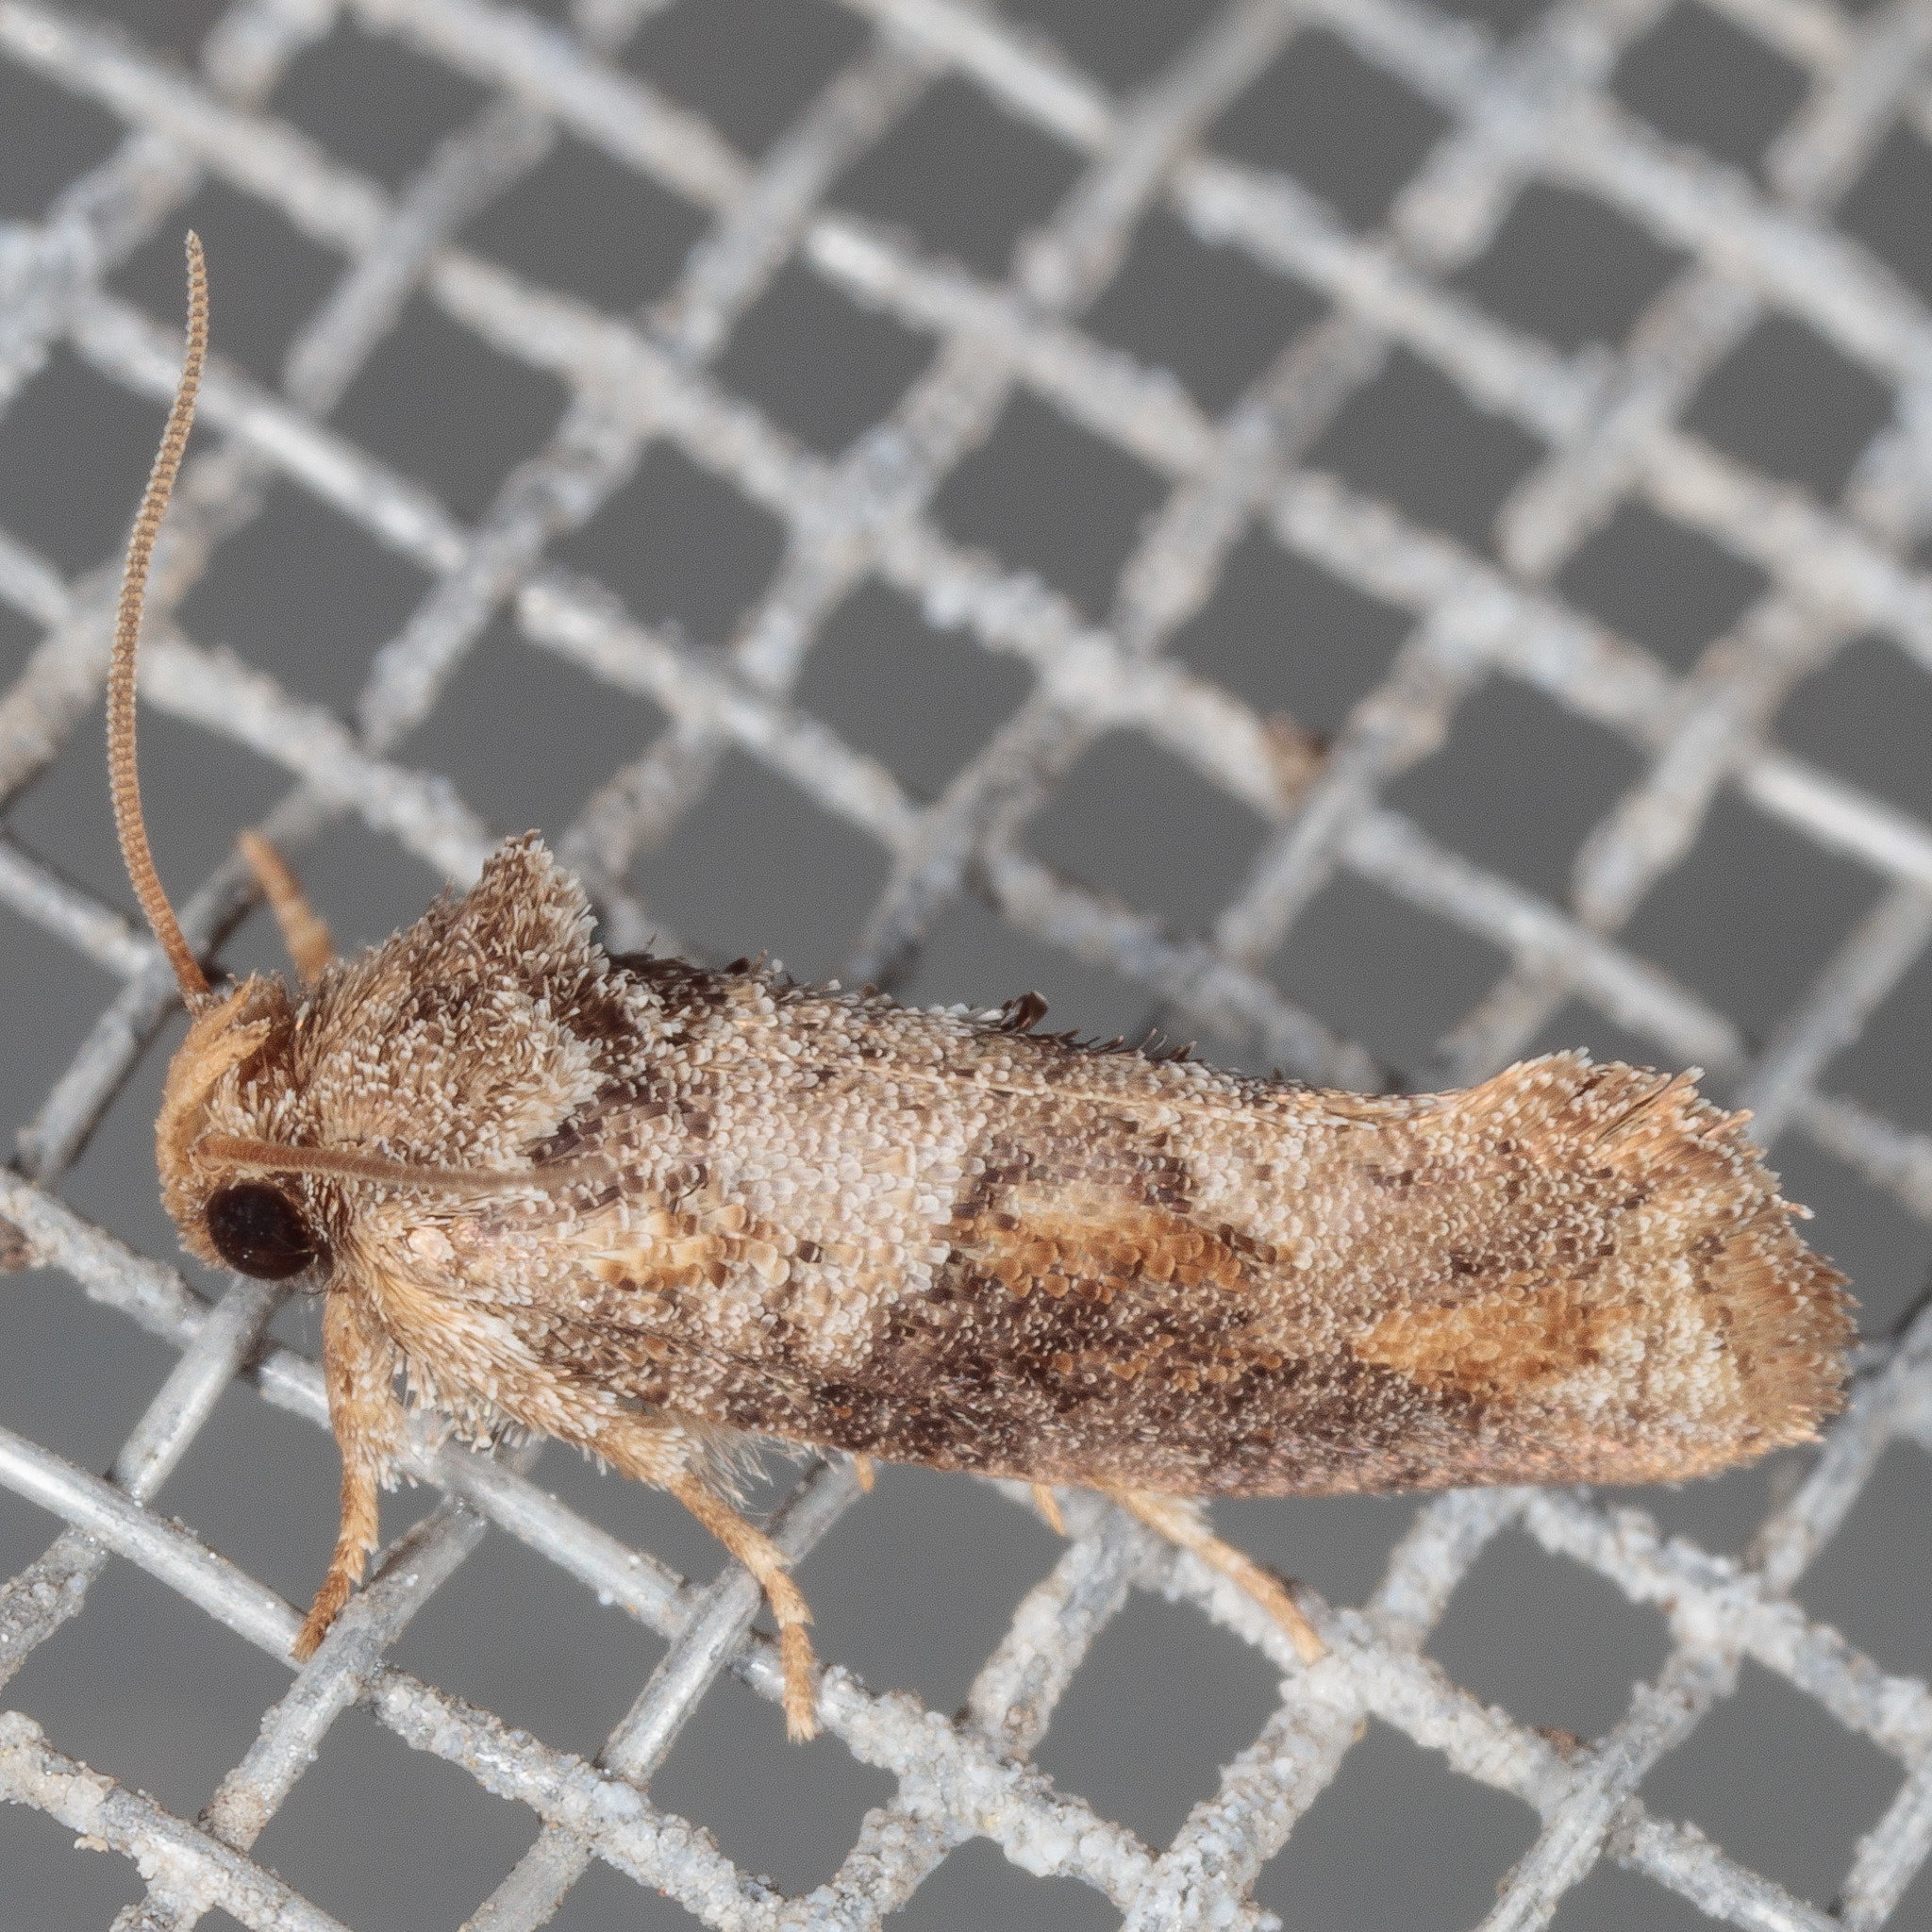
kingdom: Animalia
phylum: Arthropoda
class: Insecta
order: Lepidoptera
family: Tineidae
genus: Acrolophus
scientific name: Acrolophus piger
